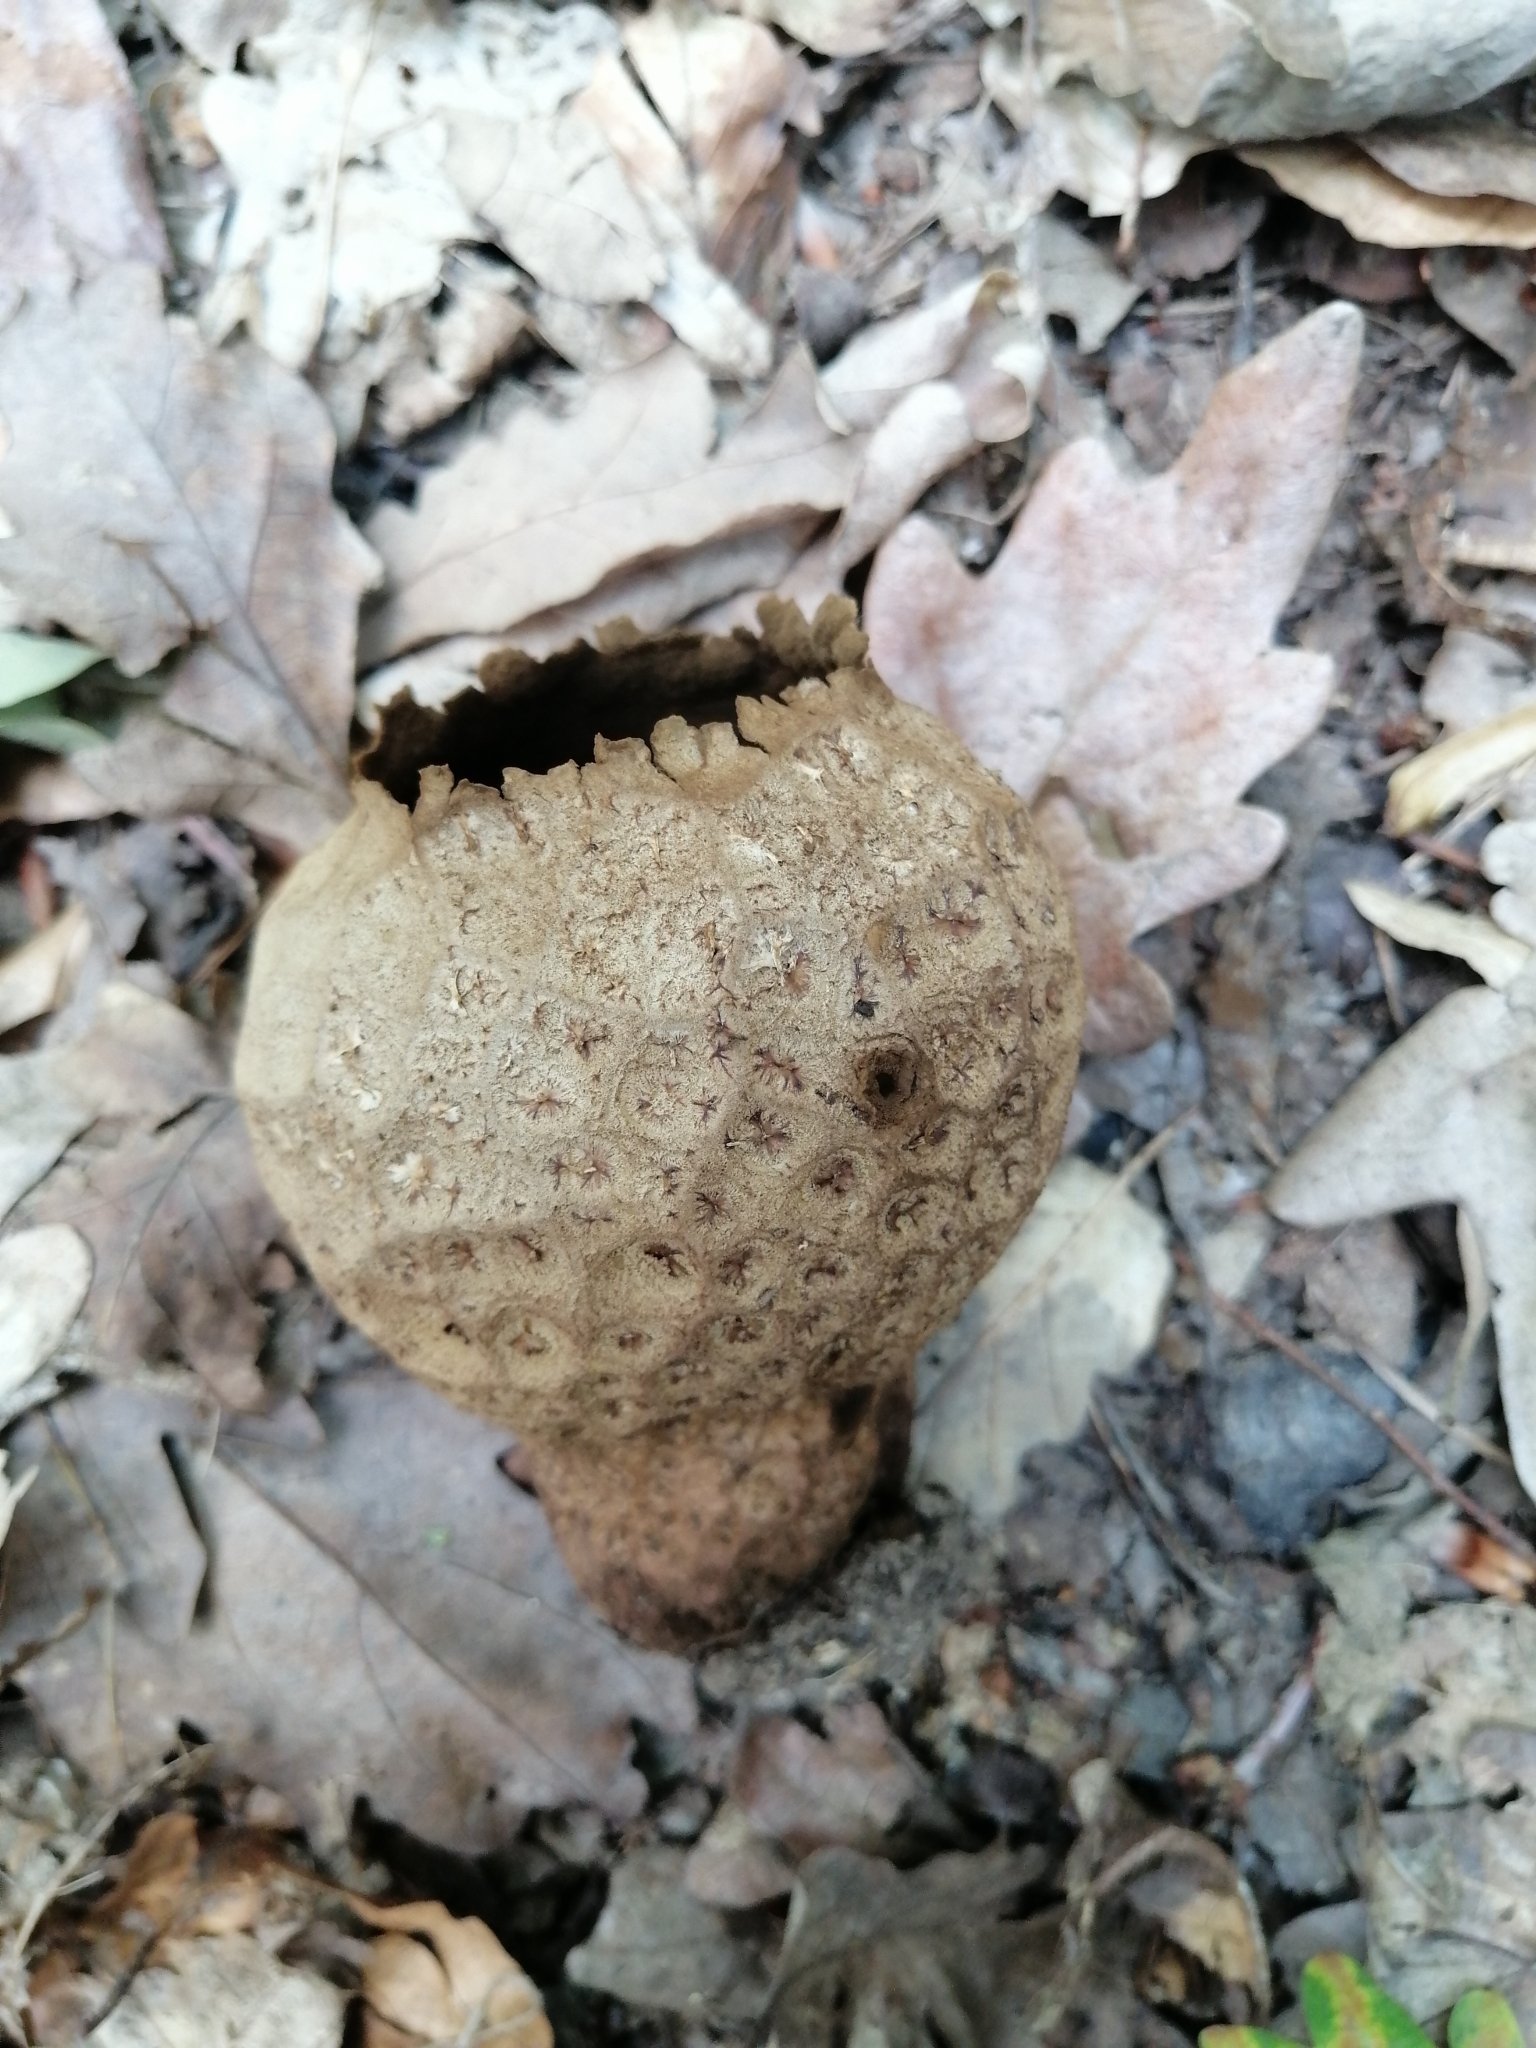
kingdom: Fungi
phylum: Basidiomycota
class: Agaricomycetes
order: Agaricales
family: Lycoperdaceae
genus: Bovistella
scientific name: Bovistella utriformis
